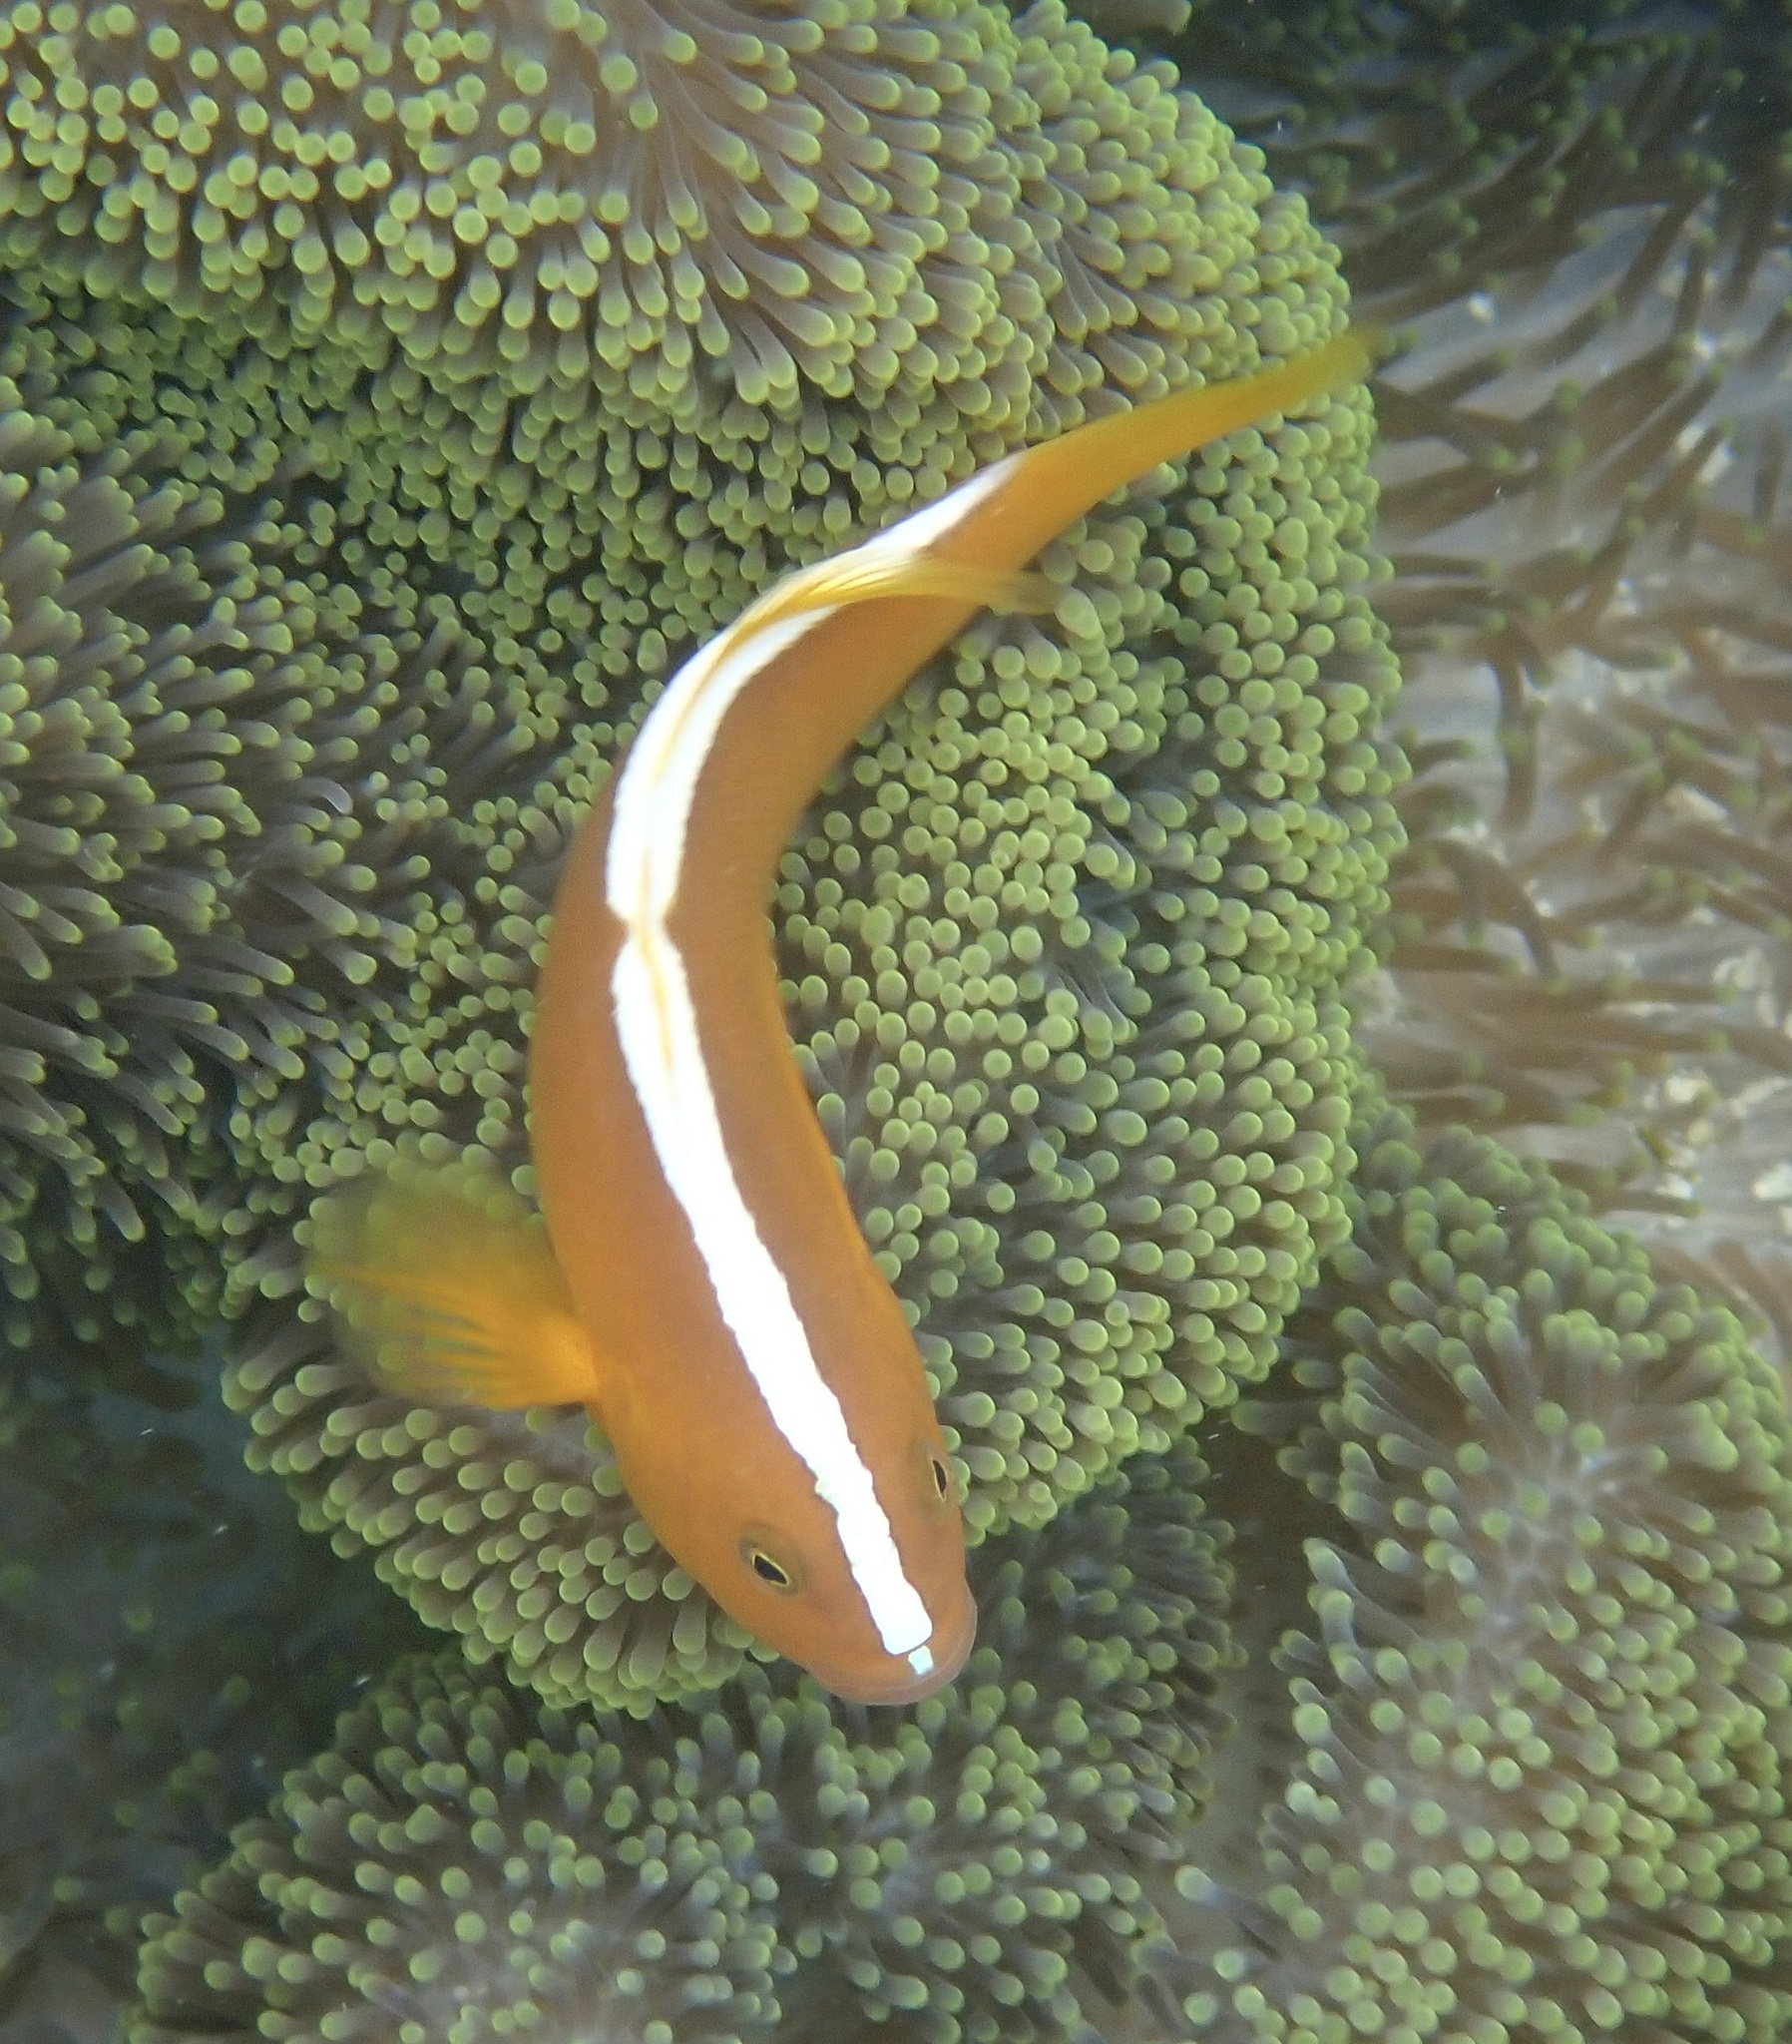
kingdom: Animalia
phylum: Chordata
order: Perciformes
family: Pomacentridae
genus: Amphiprion
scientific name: Amphiprion sandaracinos
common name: Orange anemonefish
